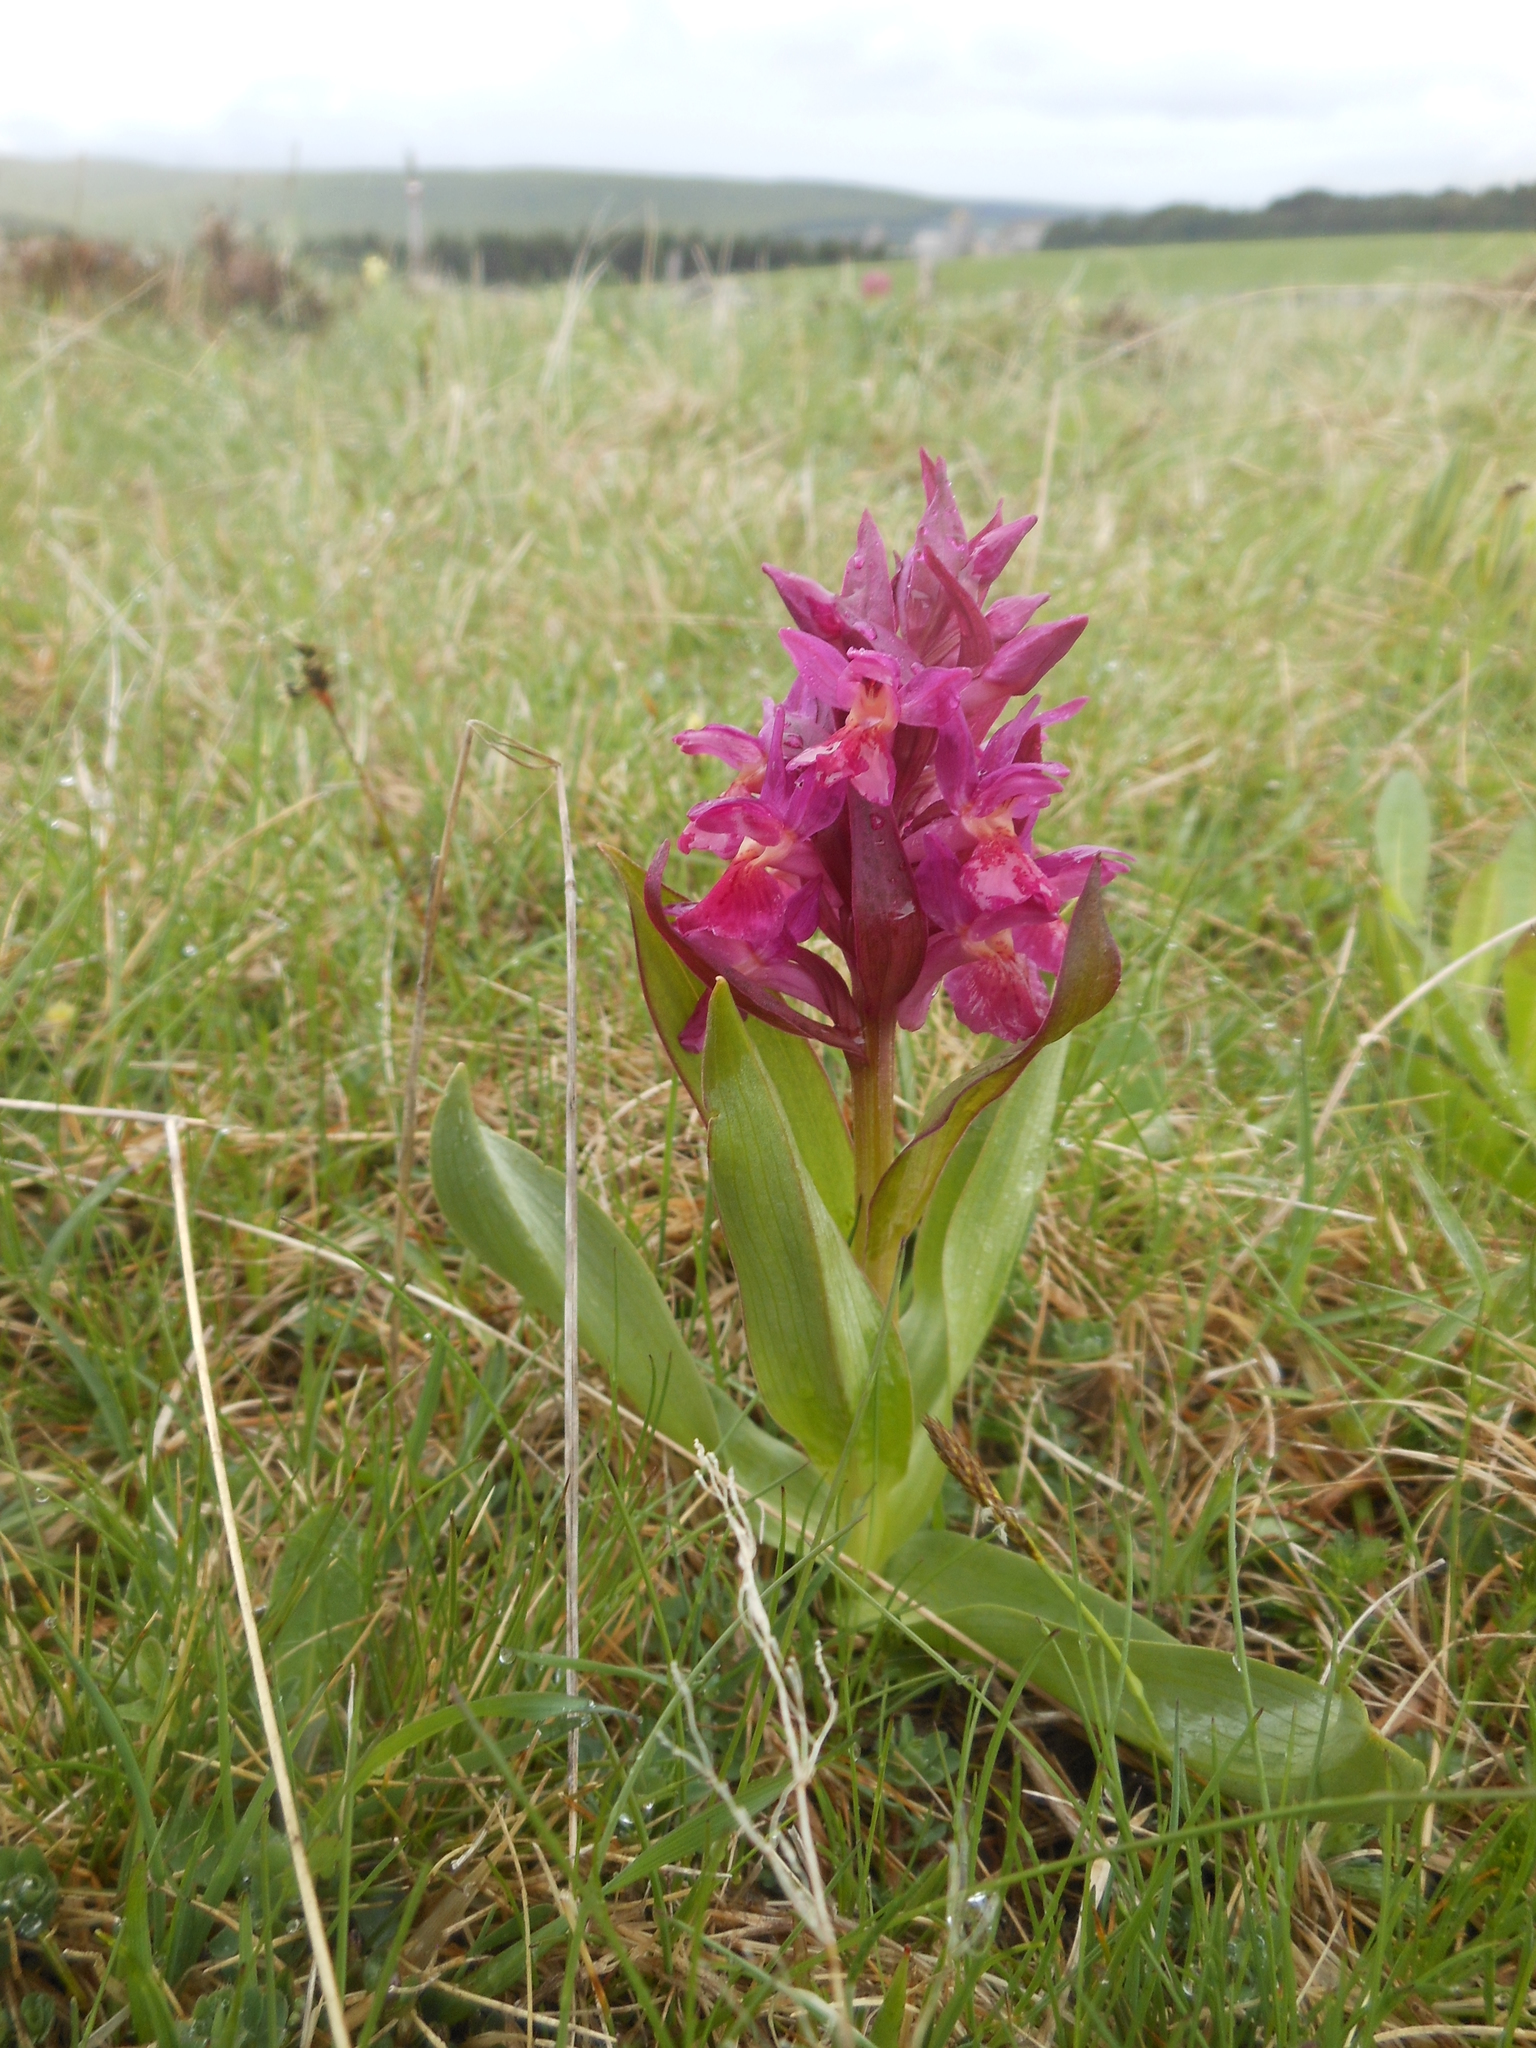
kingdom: Plantae
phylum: Tracheophyta
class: Liliopsida
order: Asparagales
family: Orchidaceae
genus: Dactylorhiza
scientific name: Dactylorhiza sambucina
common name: Elder-flowered orchid
